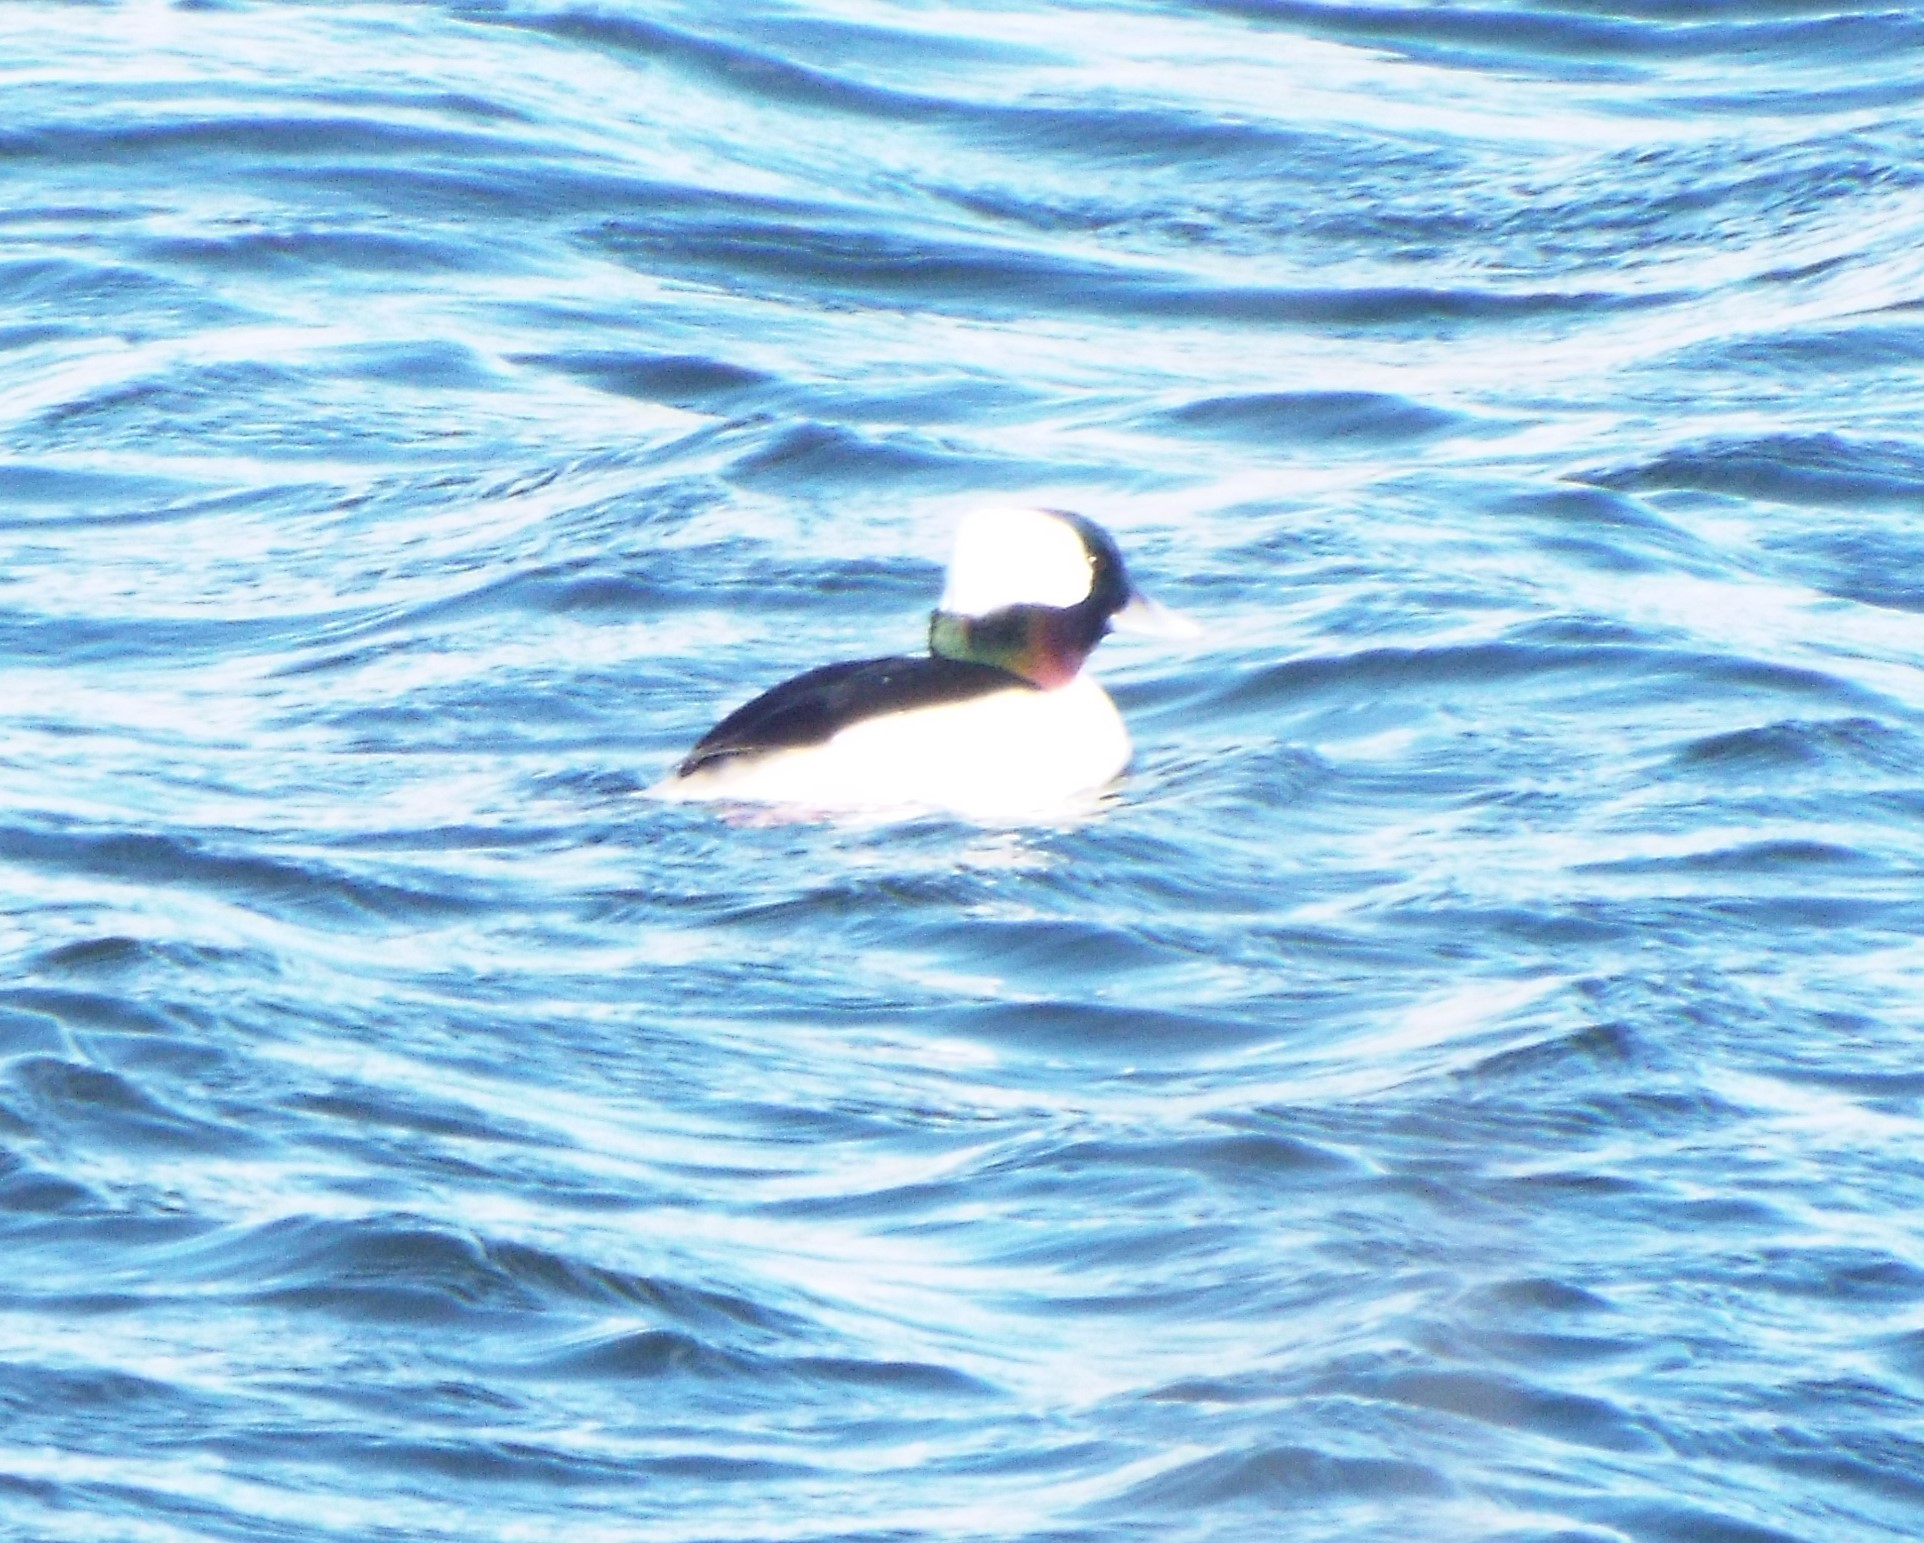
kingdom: Animalia
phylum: Chordata
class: Aves
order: Anseriformes
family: Anatidae
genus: Bucephala
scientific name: Bucephala albeola
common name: Bufflehead
